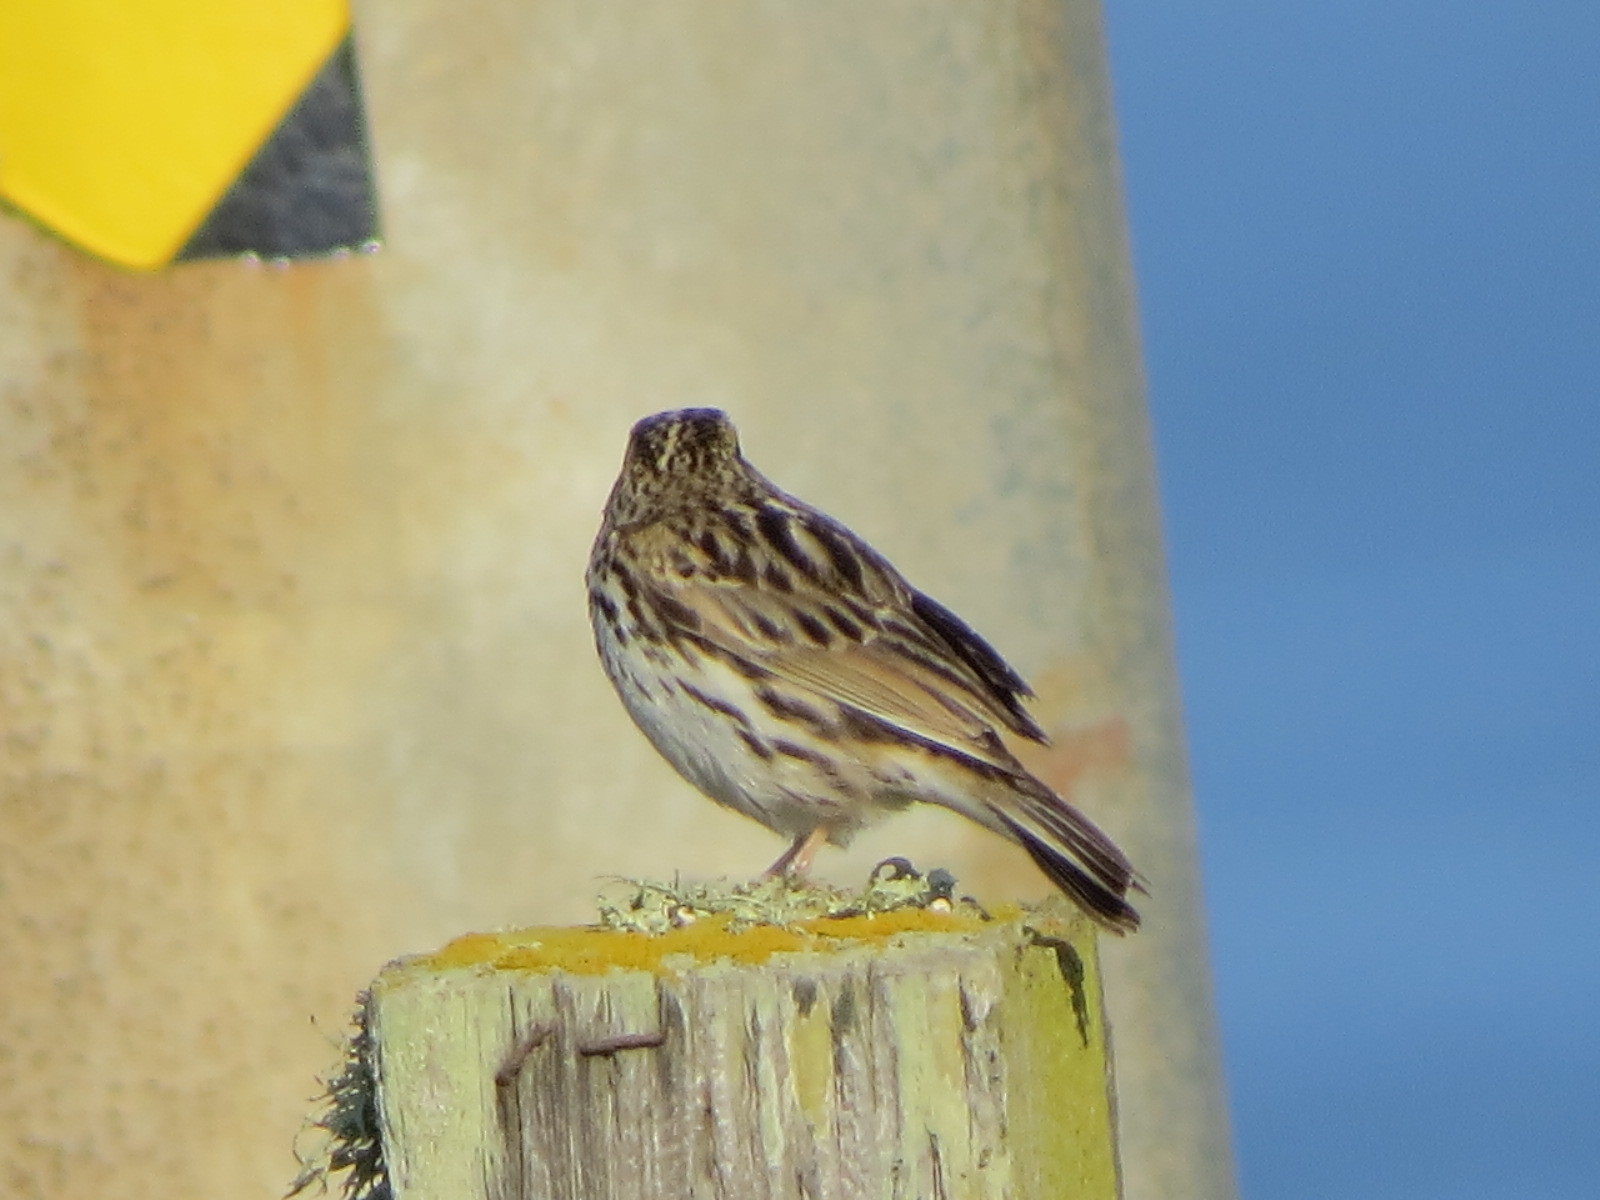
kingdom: Animalia
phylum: Chordata
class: Aves
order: Passeriformes
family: Passerellidae
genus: Passerculus
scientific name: Passerculus sandwichensis
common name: Savannah sparrow
